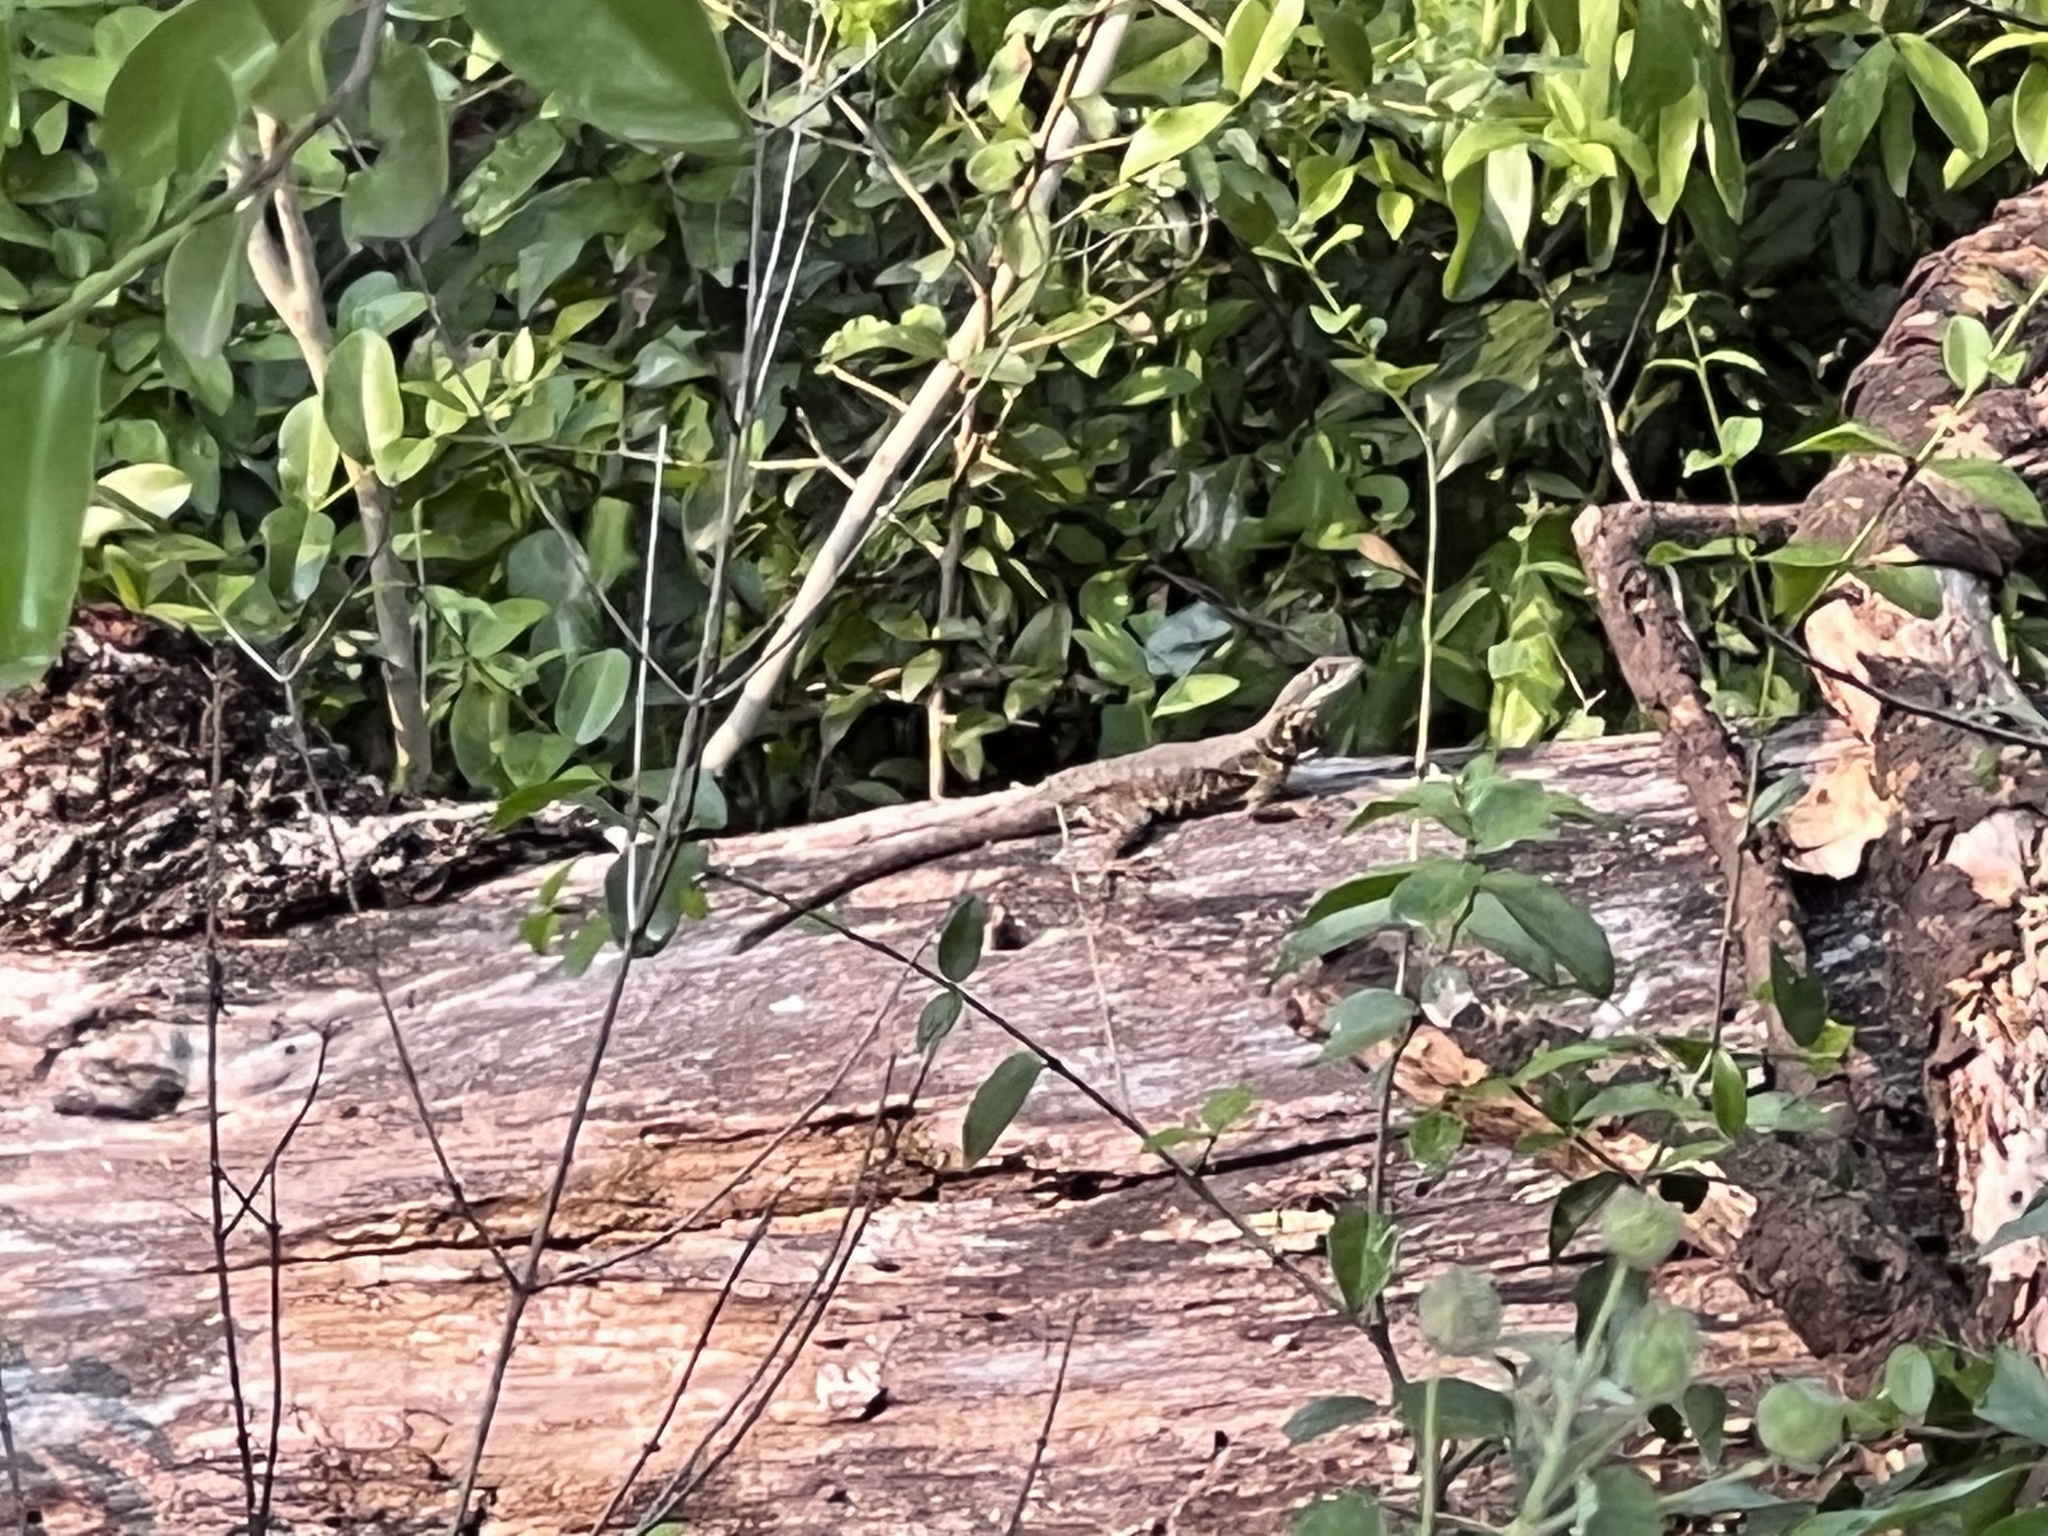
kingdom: Animalia
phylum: Chordata
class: Squamata
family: Tropiduridae
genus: Tropidurus
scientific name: Tropidurus torquatus
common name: Amazon lava lizard
